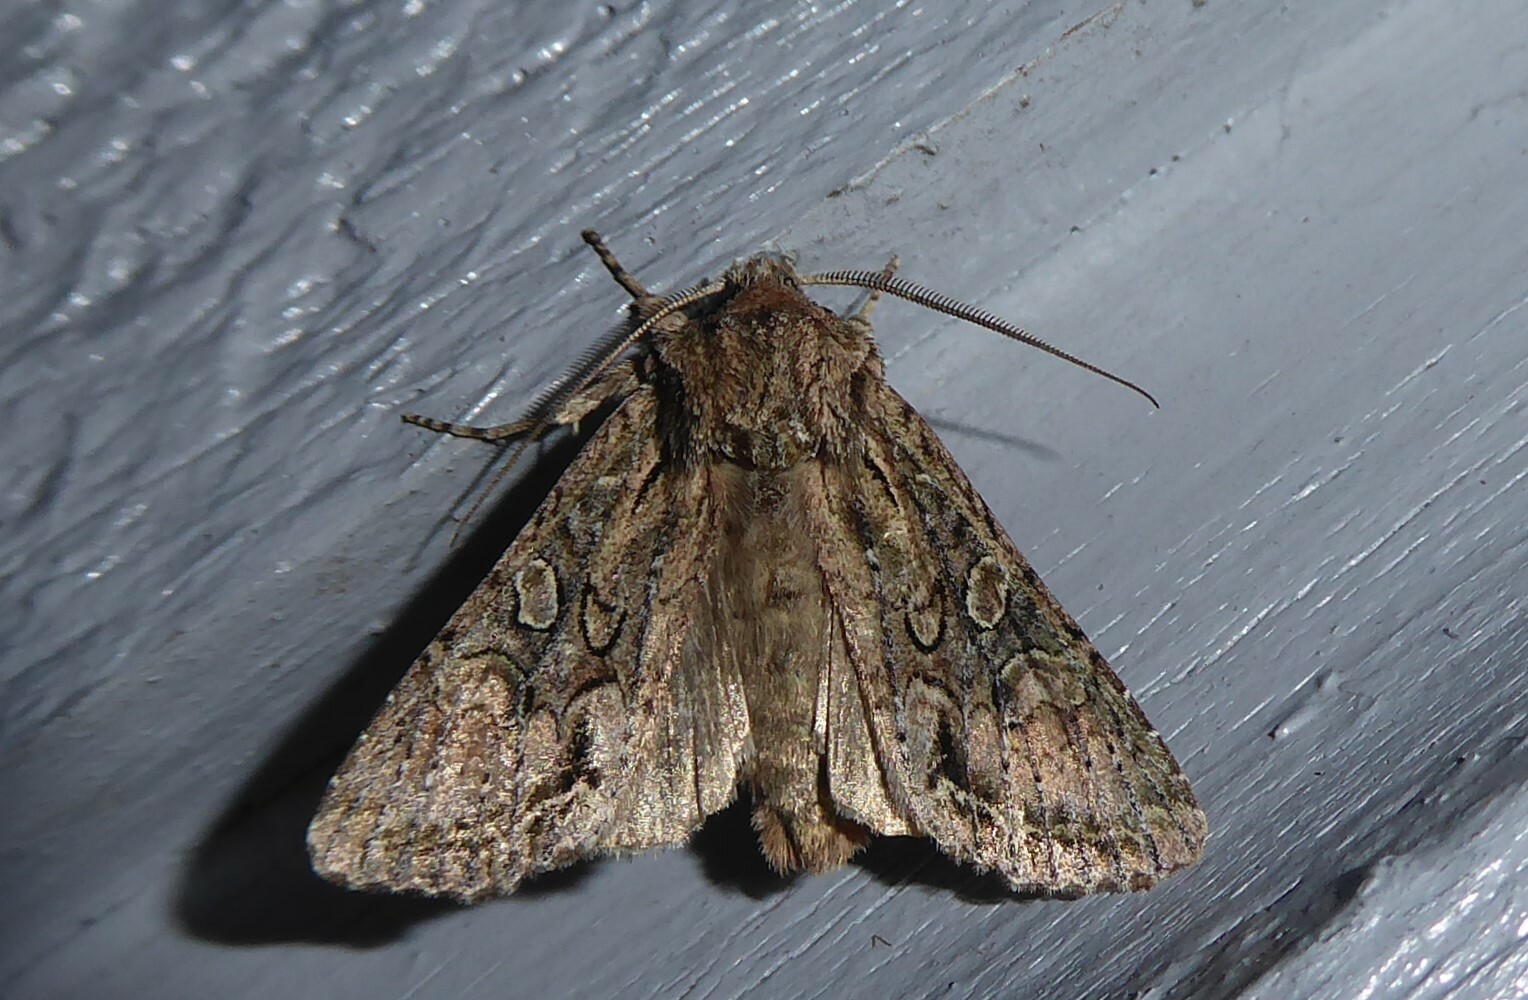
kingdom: Animalia
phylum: Arthropoda
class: Insecta
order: Lepidoptera
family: Noctuidae
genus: Ichneutica
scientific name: Ichneutica mutans
